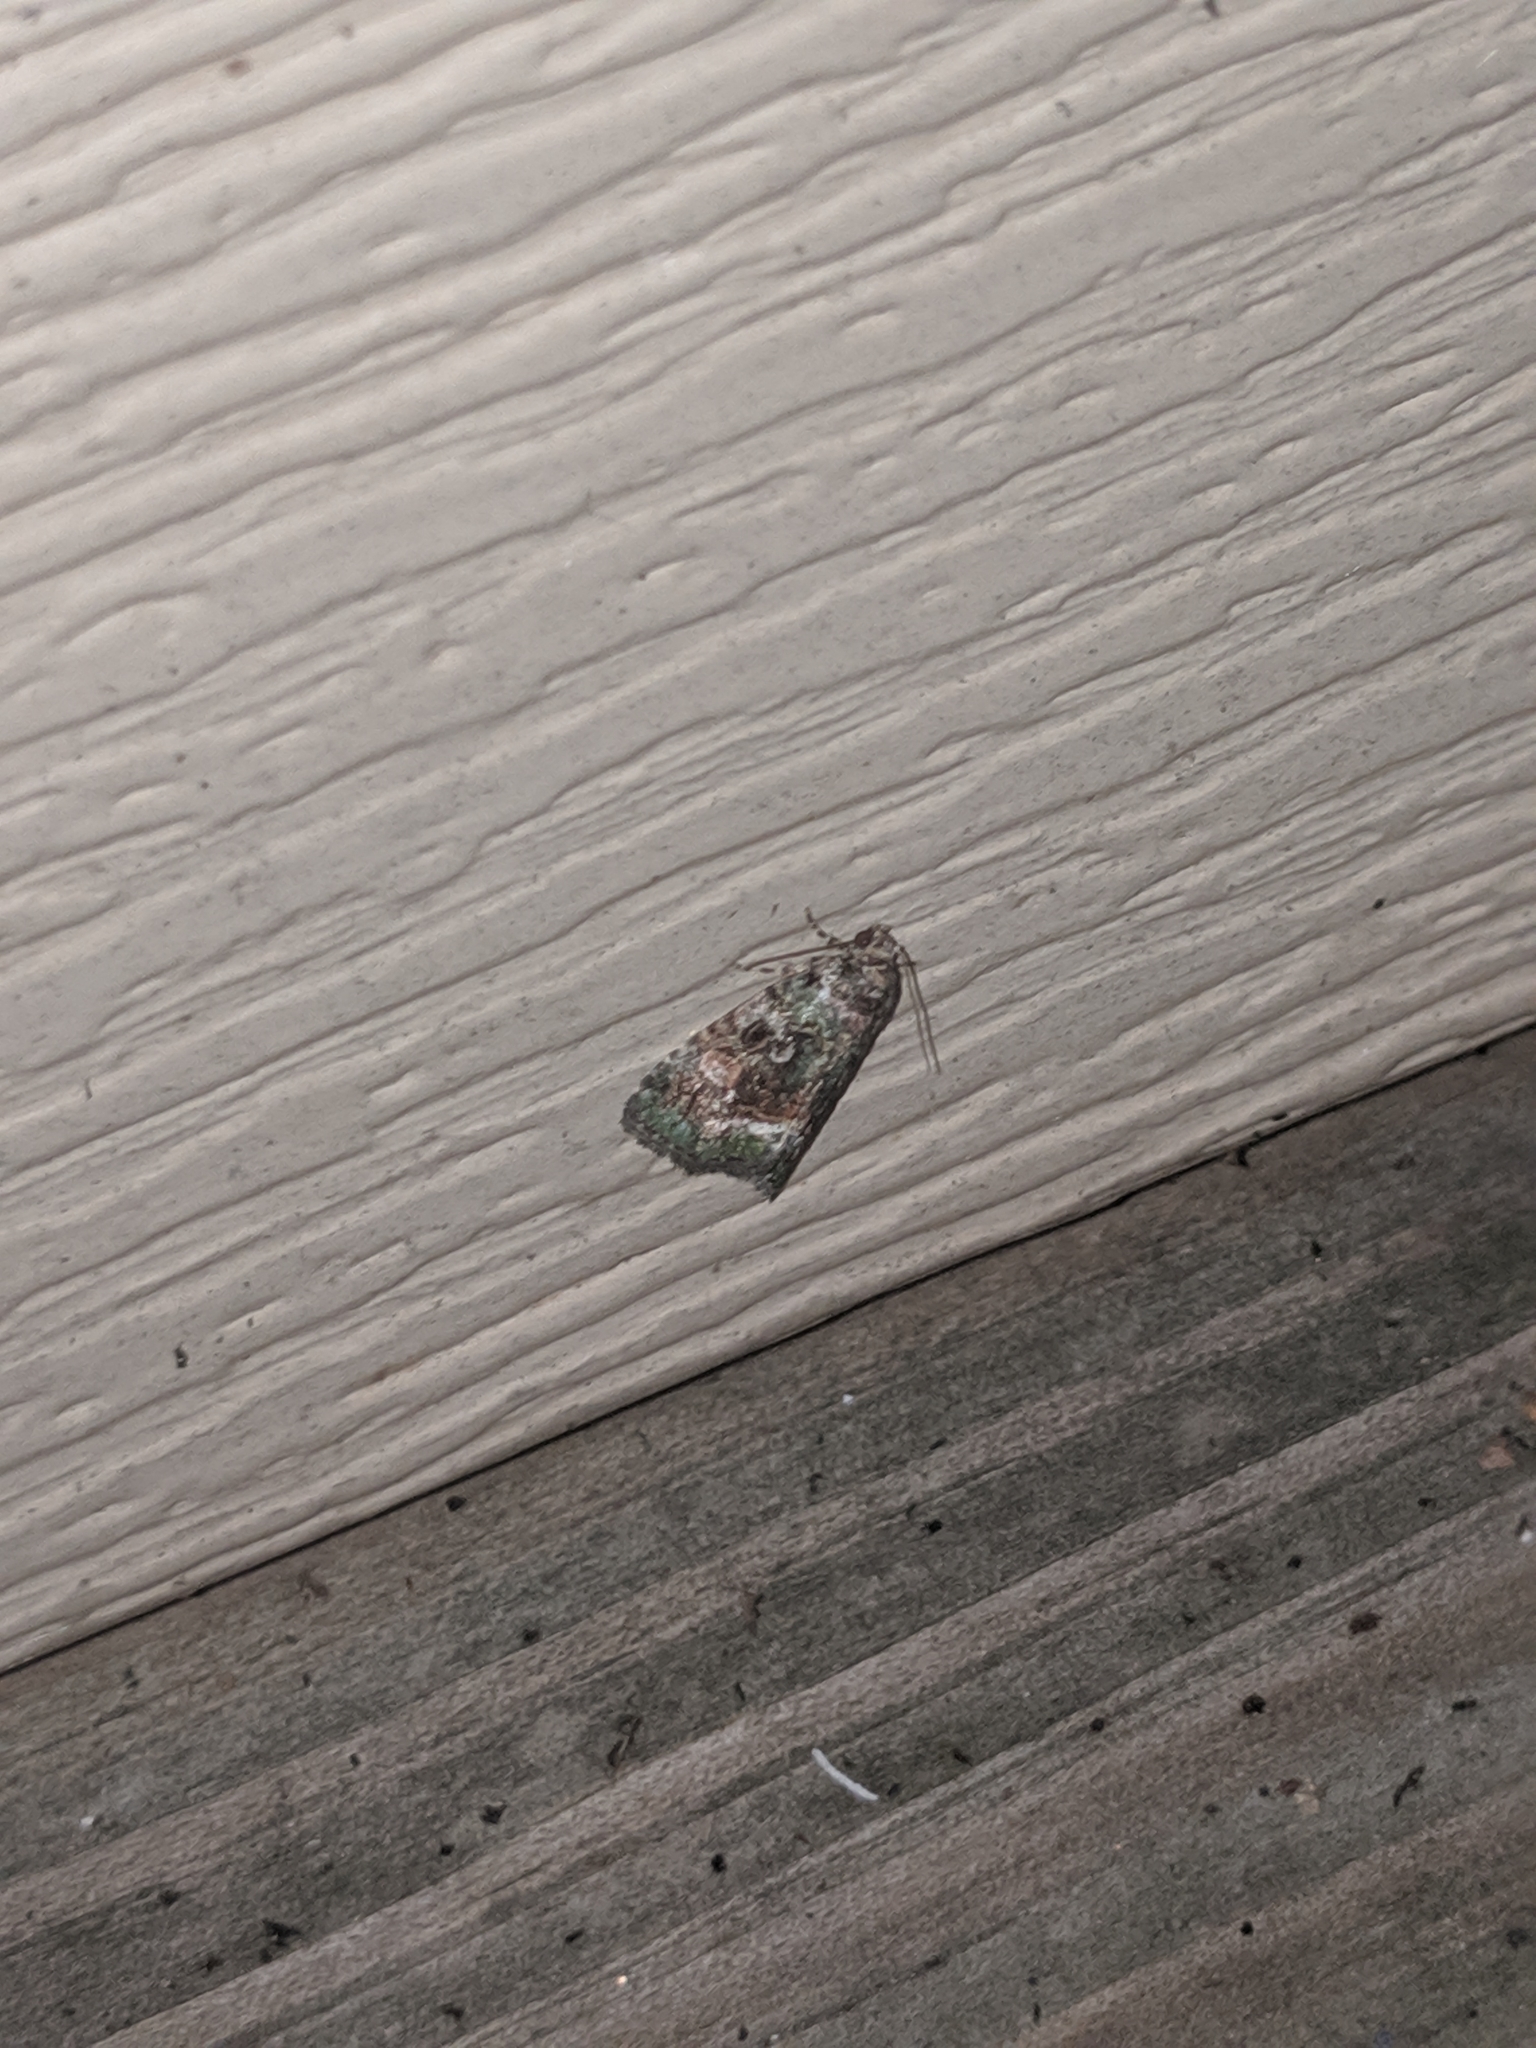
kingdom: Animalia
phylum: Arthropoda
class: Insecta
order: Lepidoptera
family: Noctuidae
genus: Lithacodia
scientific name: Lithacodia musta
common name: Small mossy glyph
